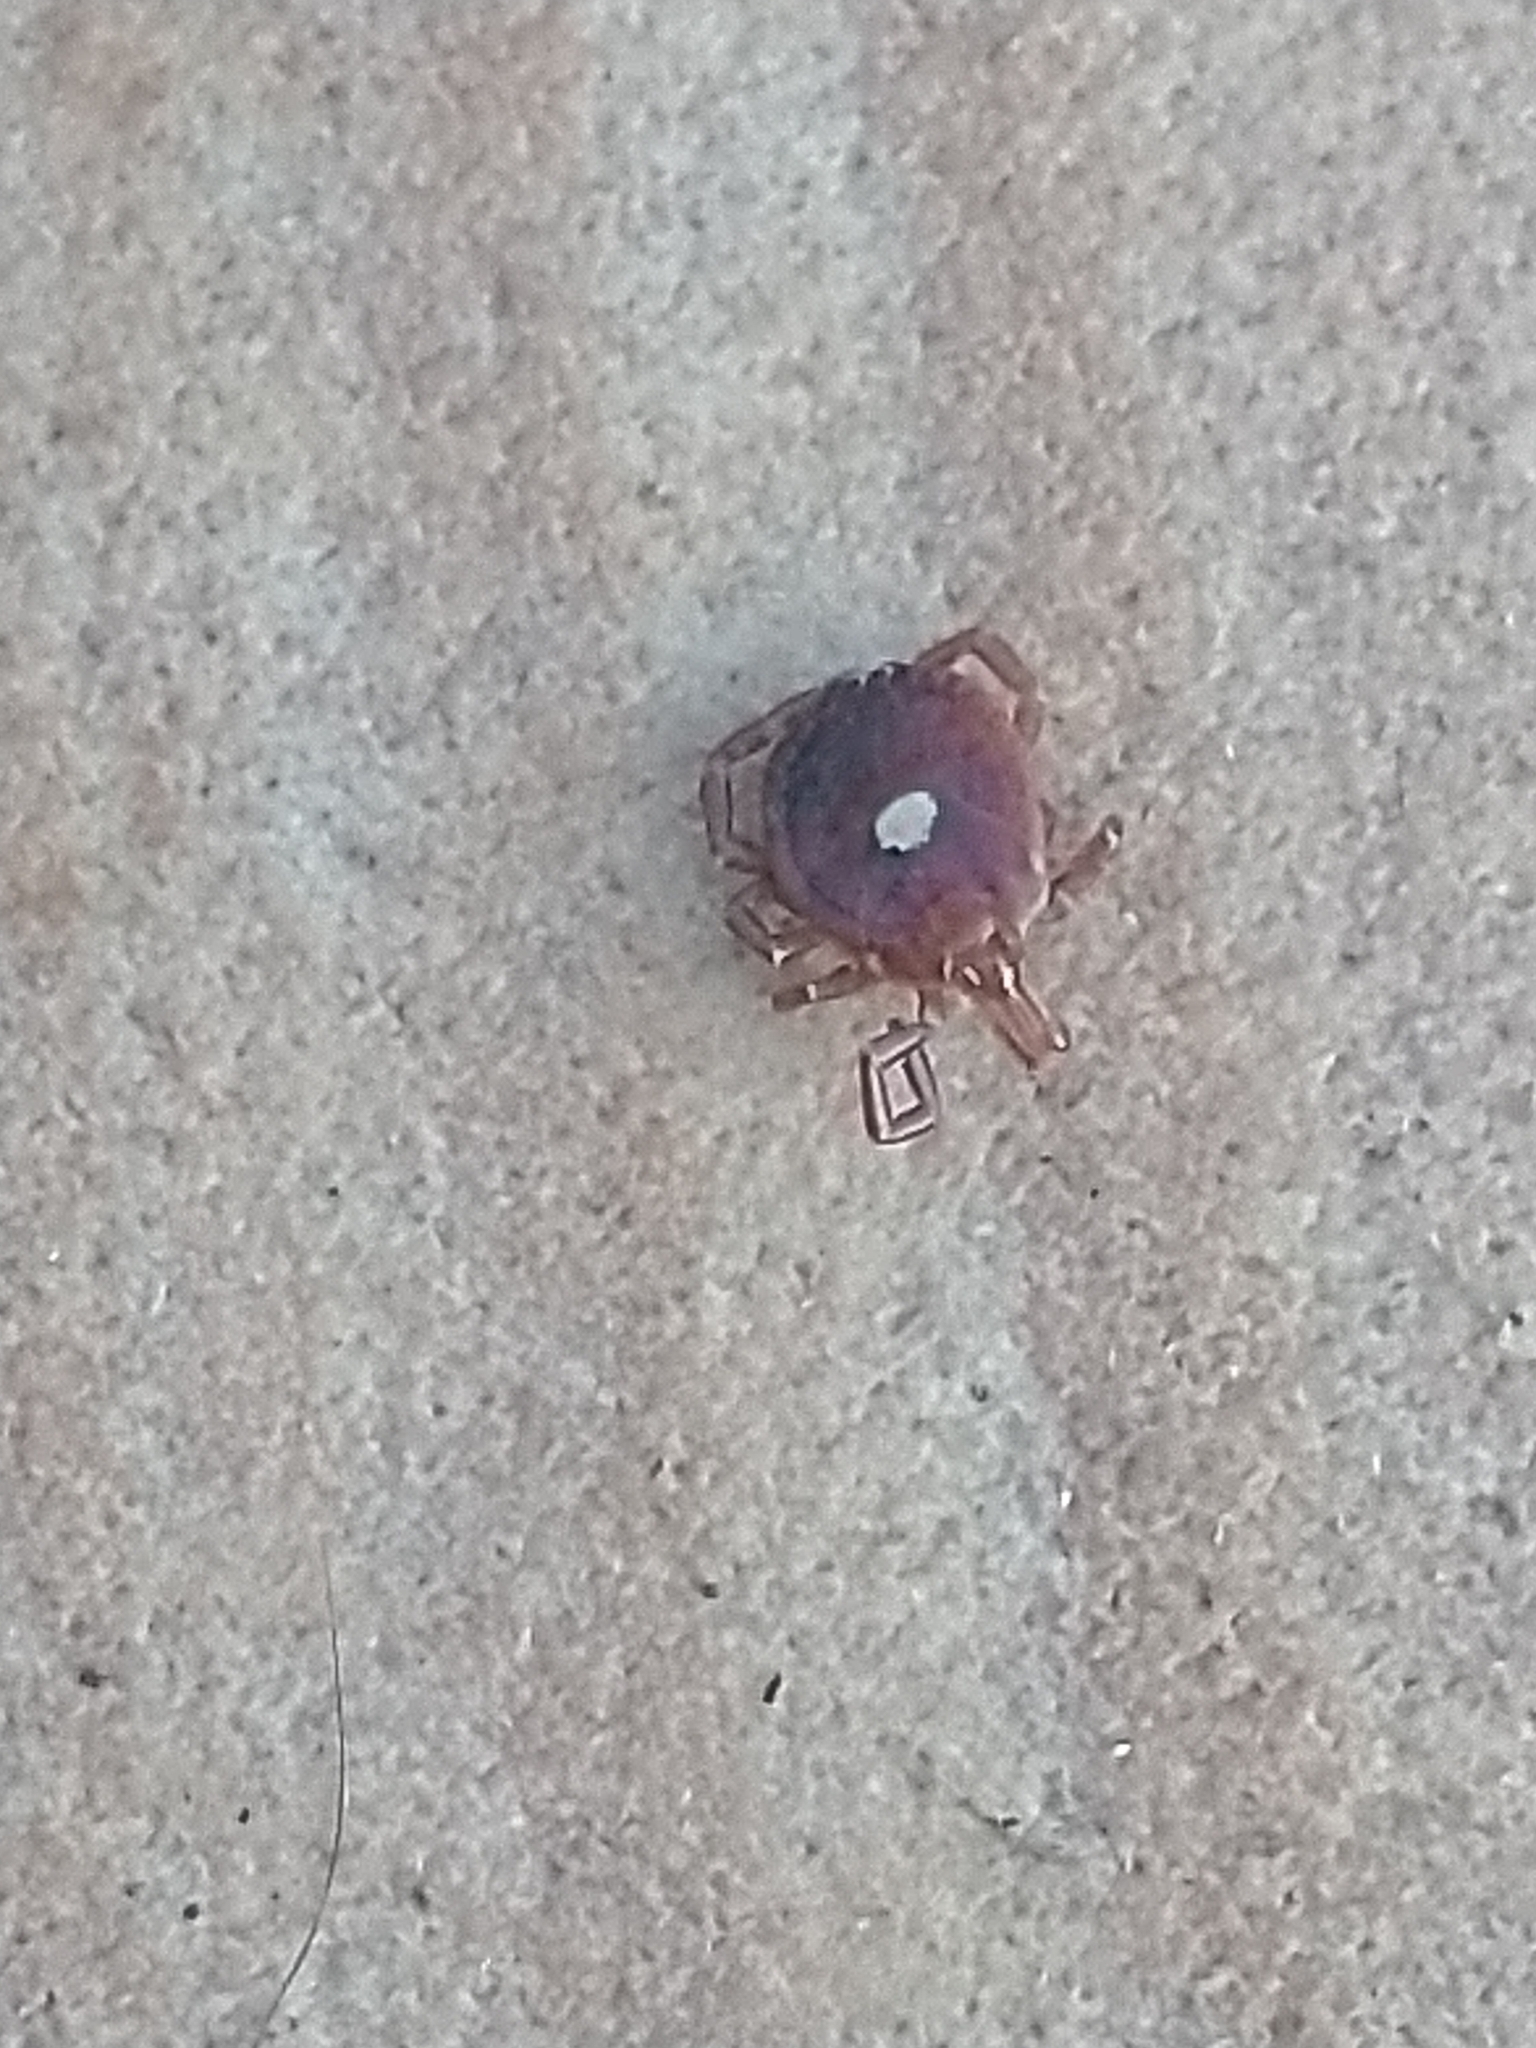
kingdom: Animalia
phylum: Arthropoda
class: Arachnida
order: Ixodida
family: Ixodidae
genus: Amblyomma
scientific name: Amblyomma americanum
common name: Lone star tick
